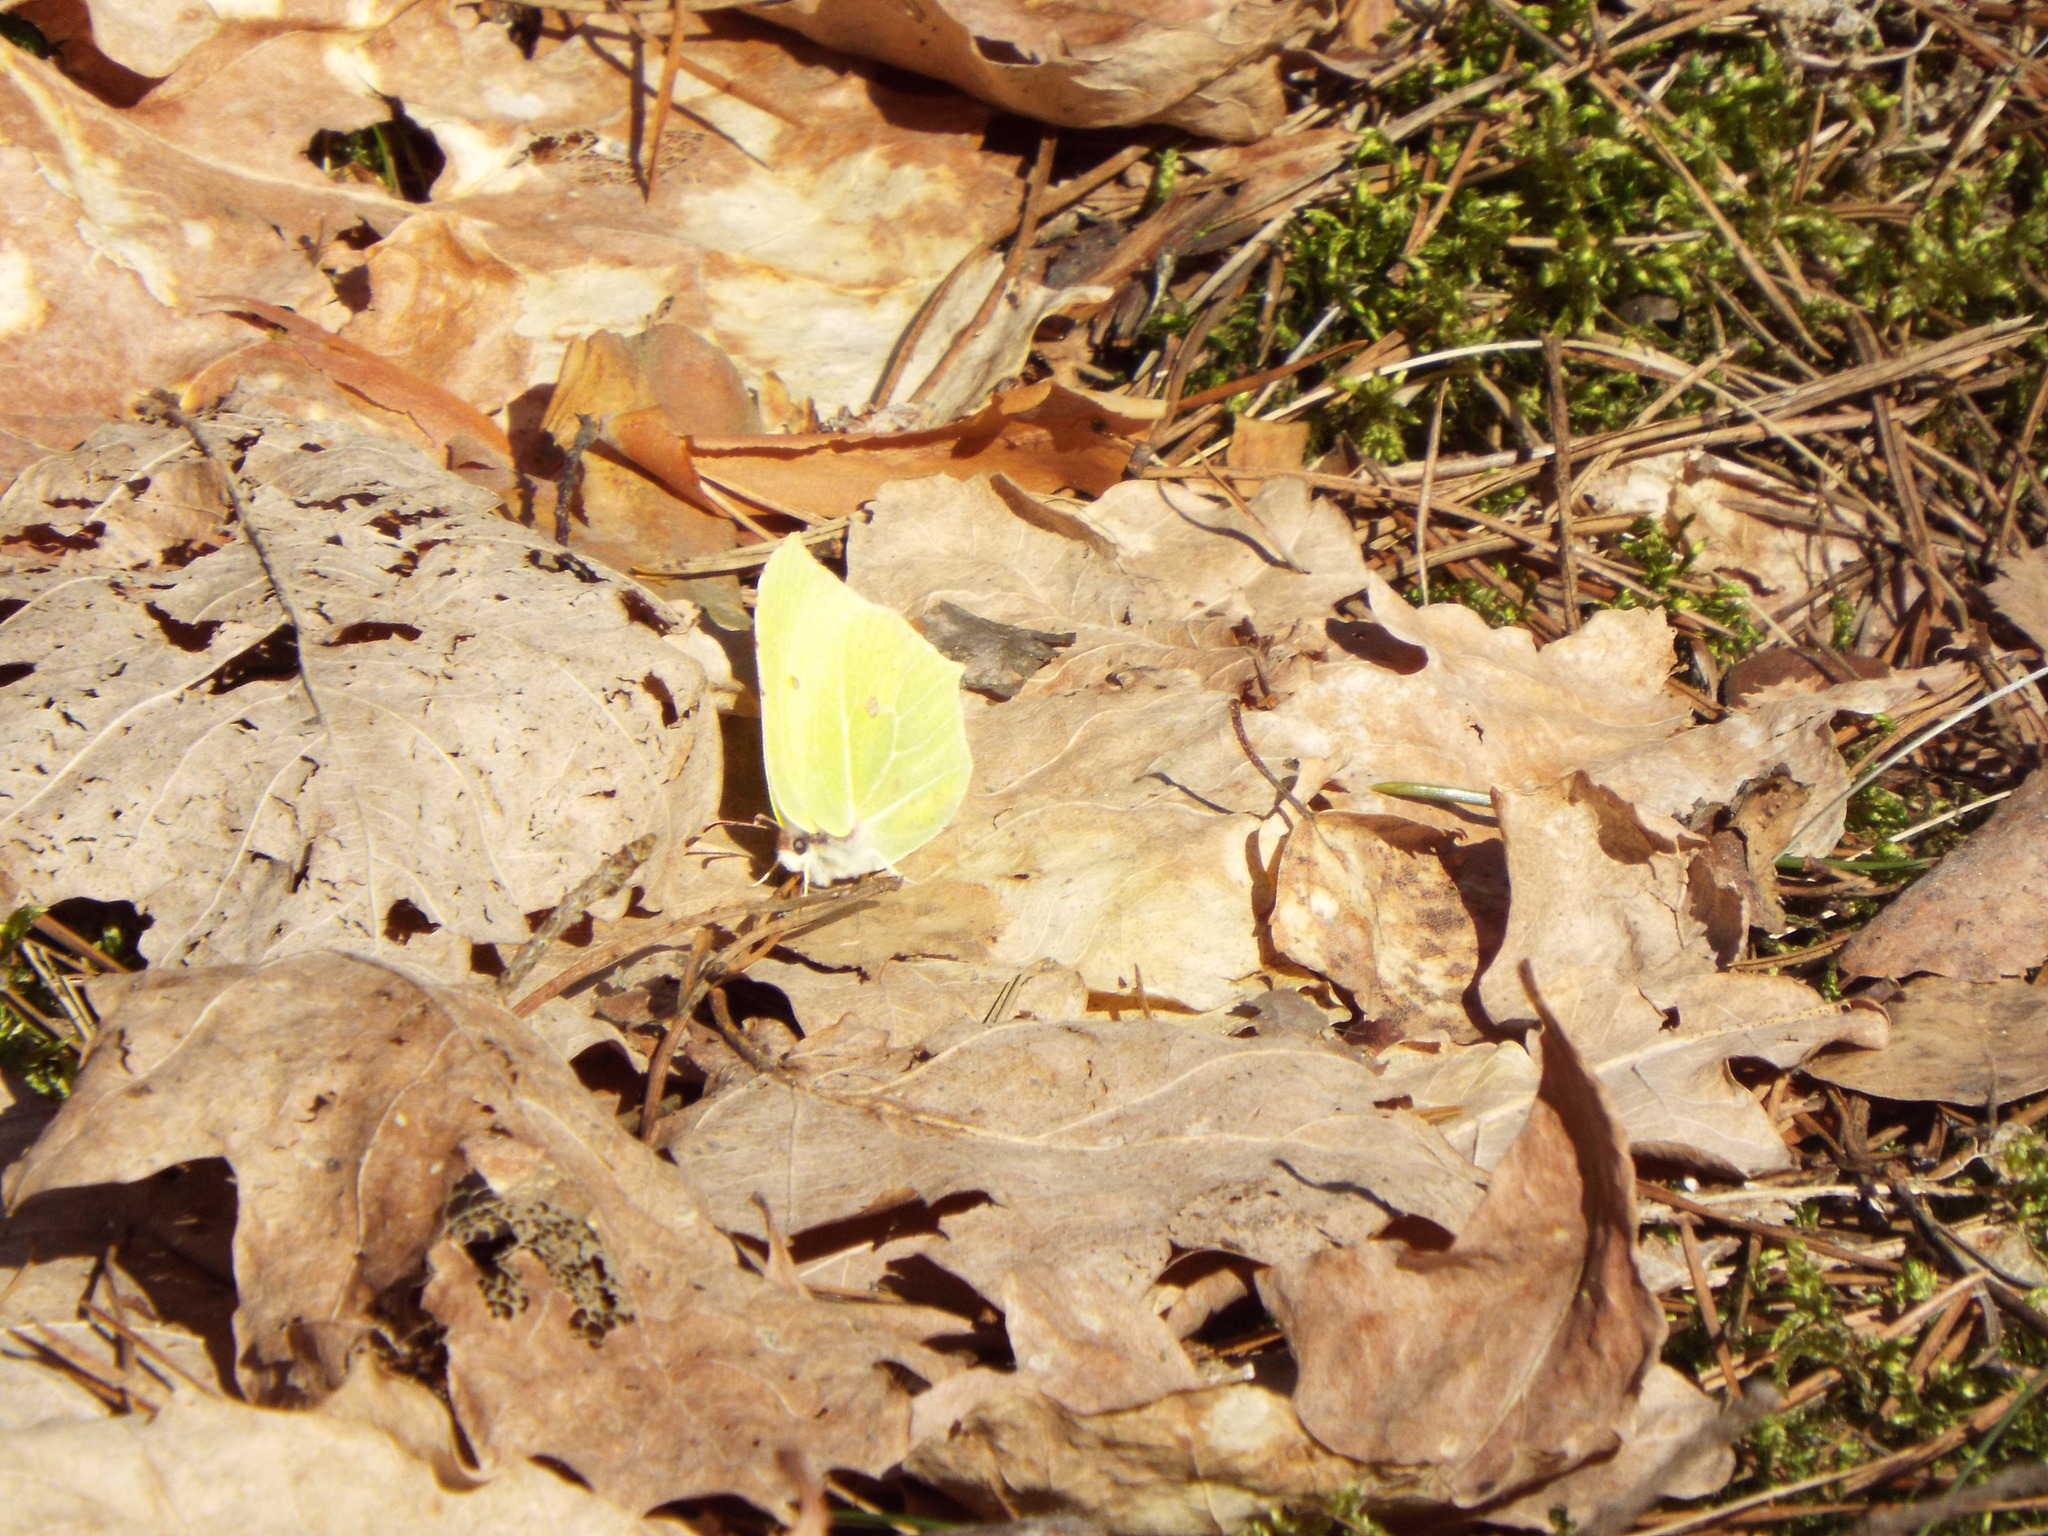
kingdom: Animalia
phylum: Arthropoda
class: Insecta
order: Lepidoptera
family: Pieridae
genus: Gonepteryx
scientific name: Gonepteryx rhamni
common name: Brimstone
